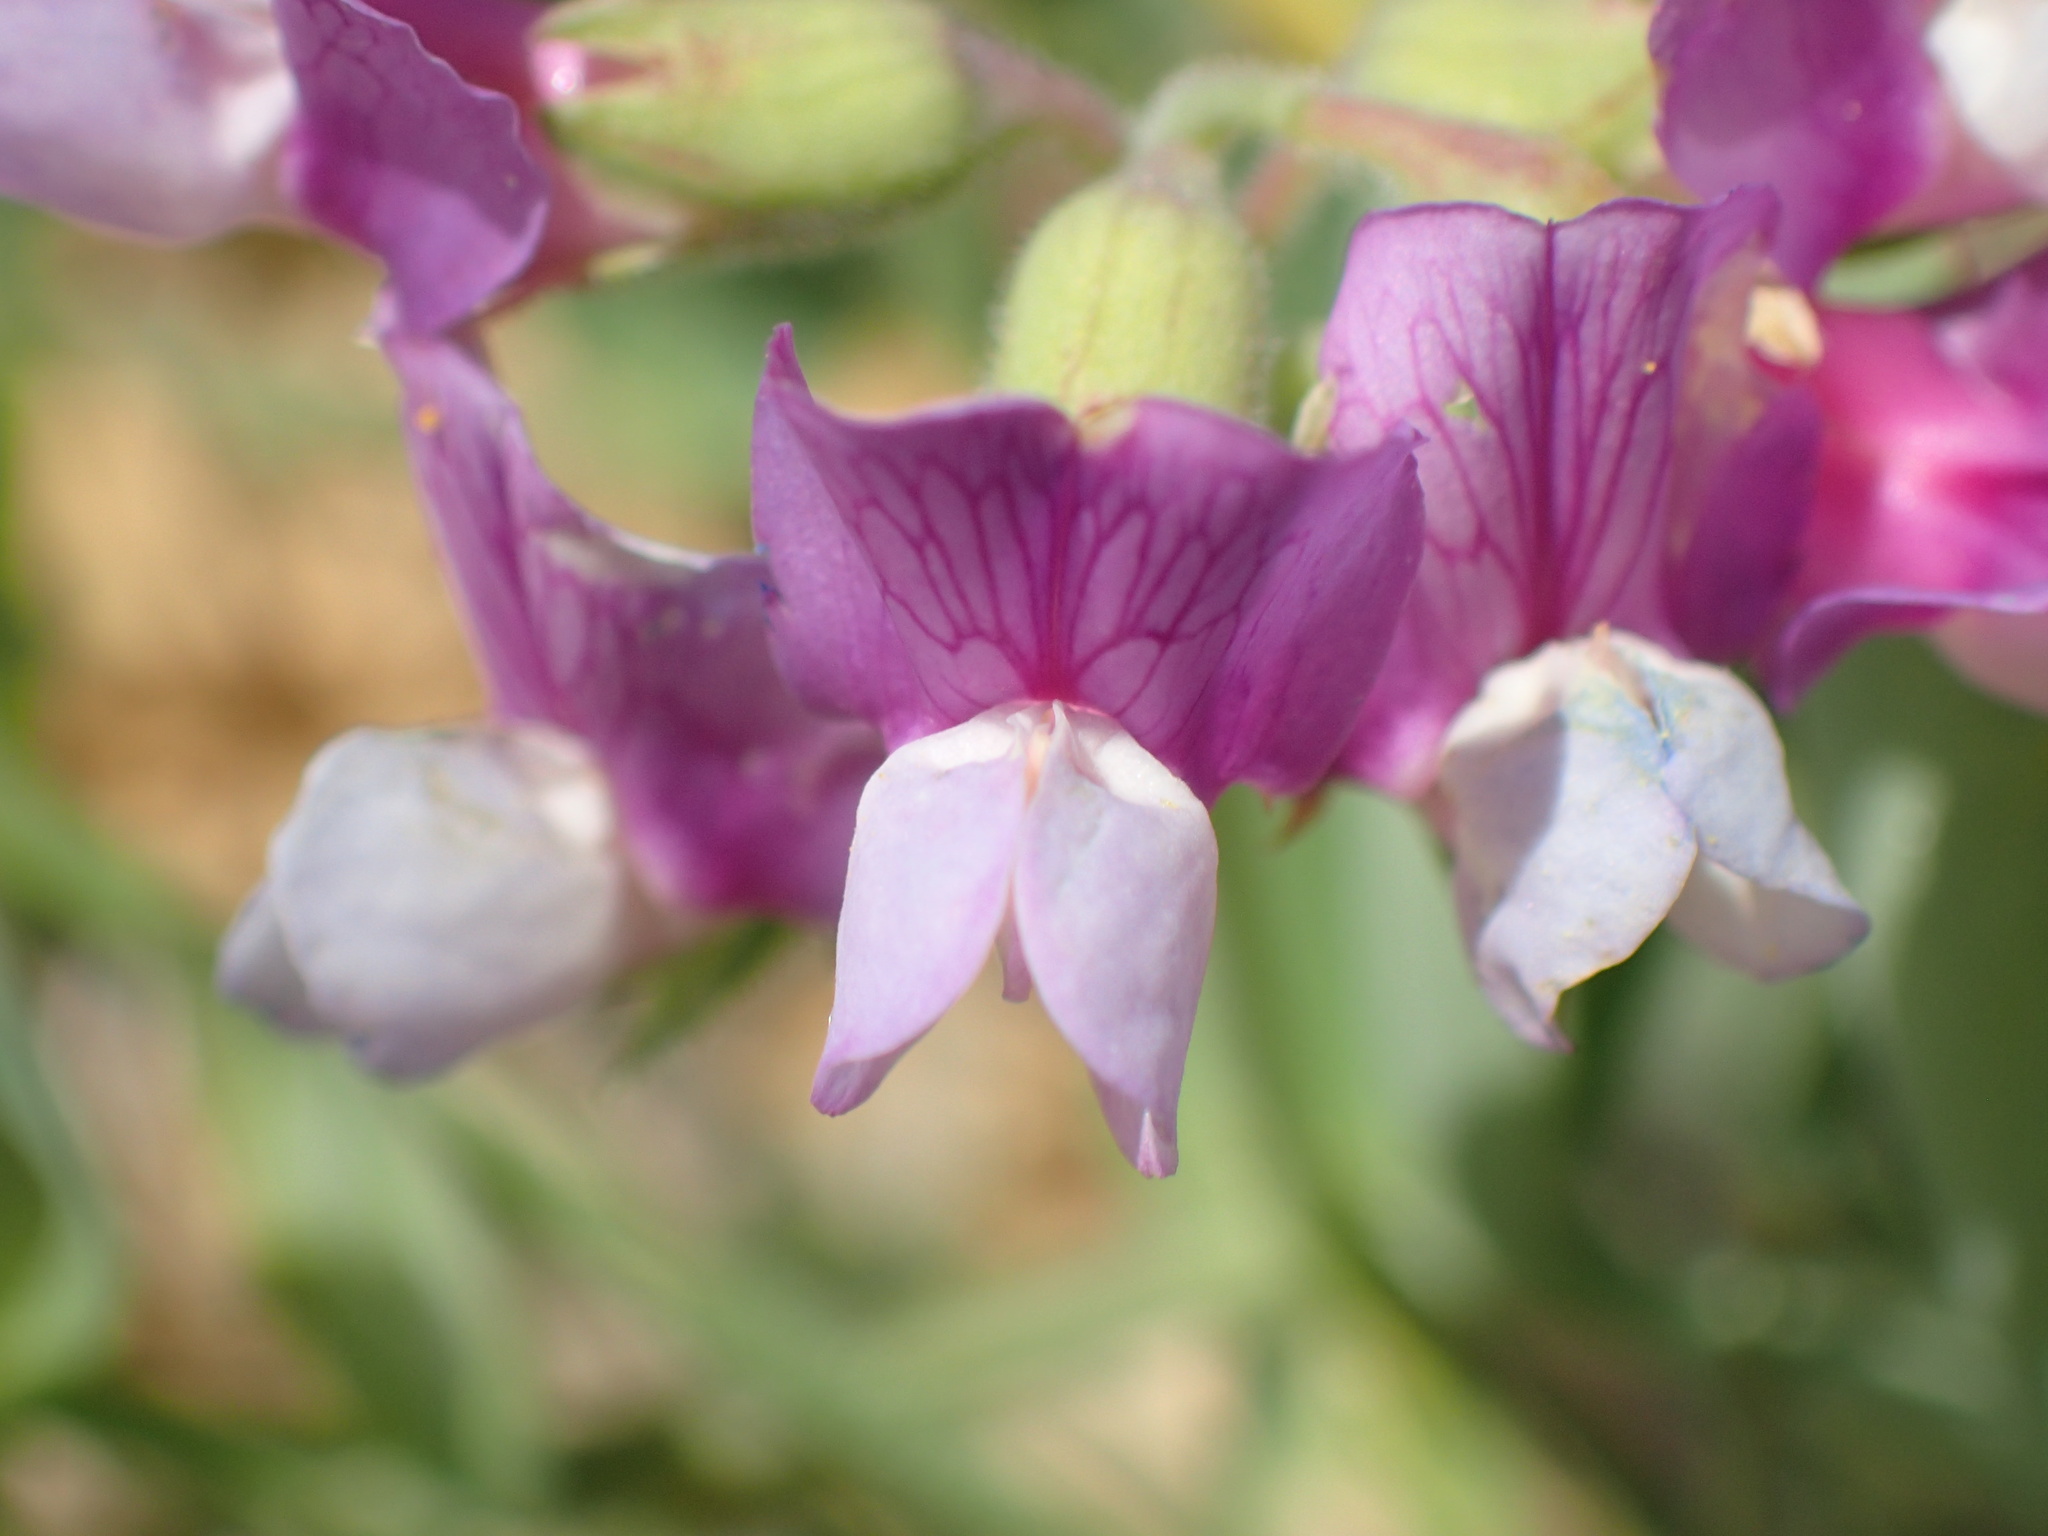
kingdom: Plantae
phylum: Tracheophyta
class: Magnoliopsida
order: Fabales
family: Fabaceae
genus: Lathyrus
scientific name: Lathyrus japonicus
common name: Sea pea
